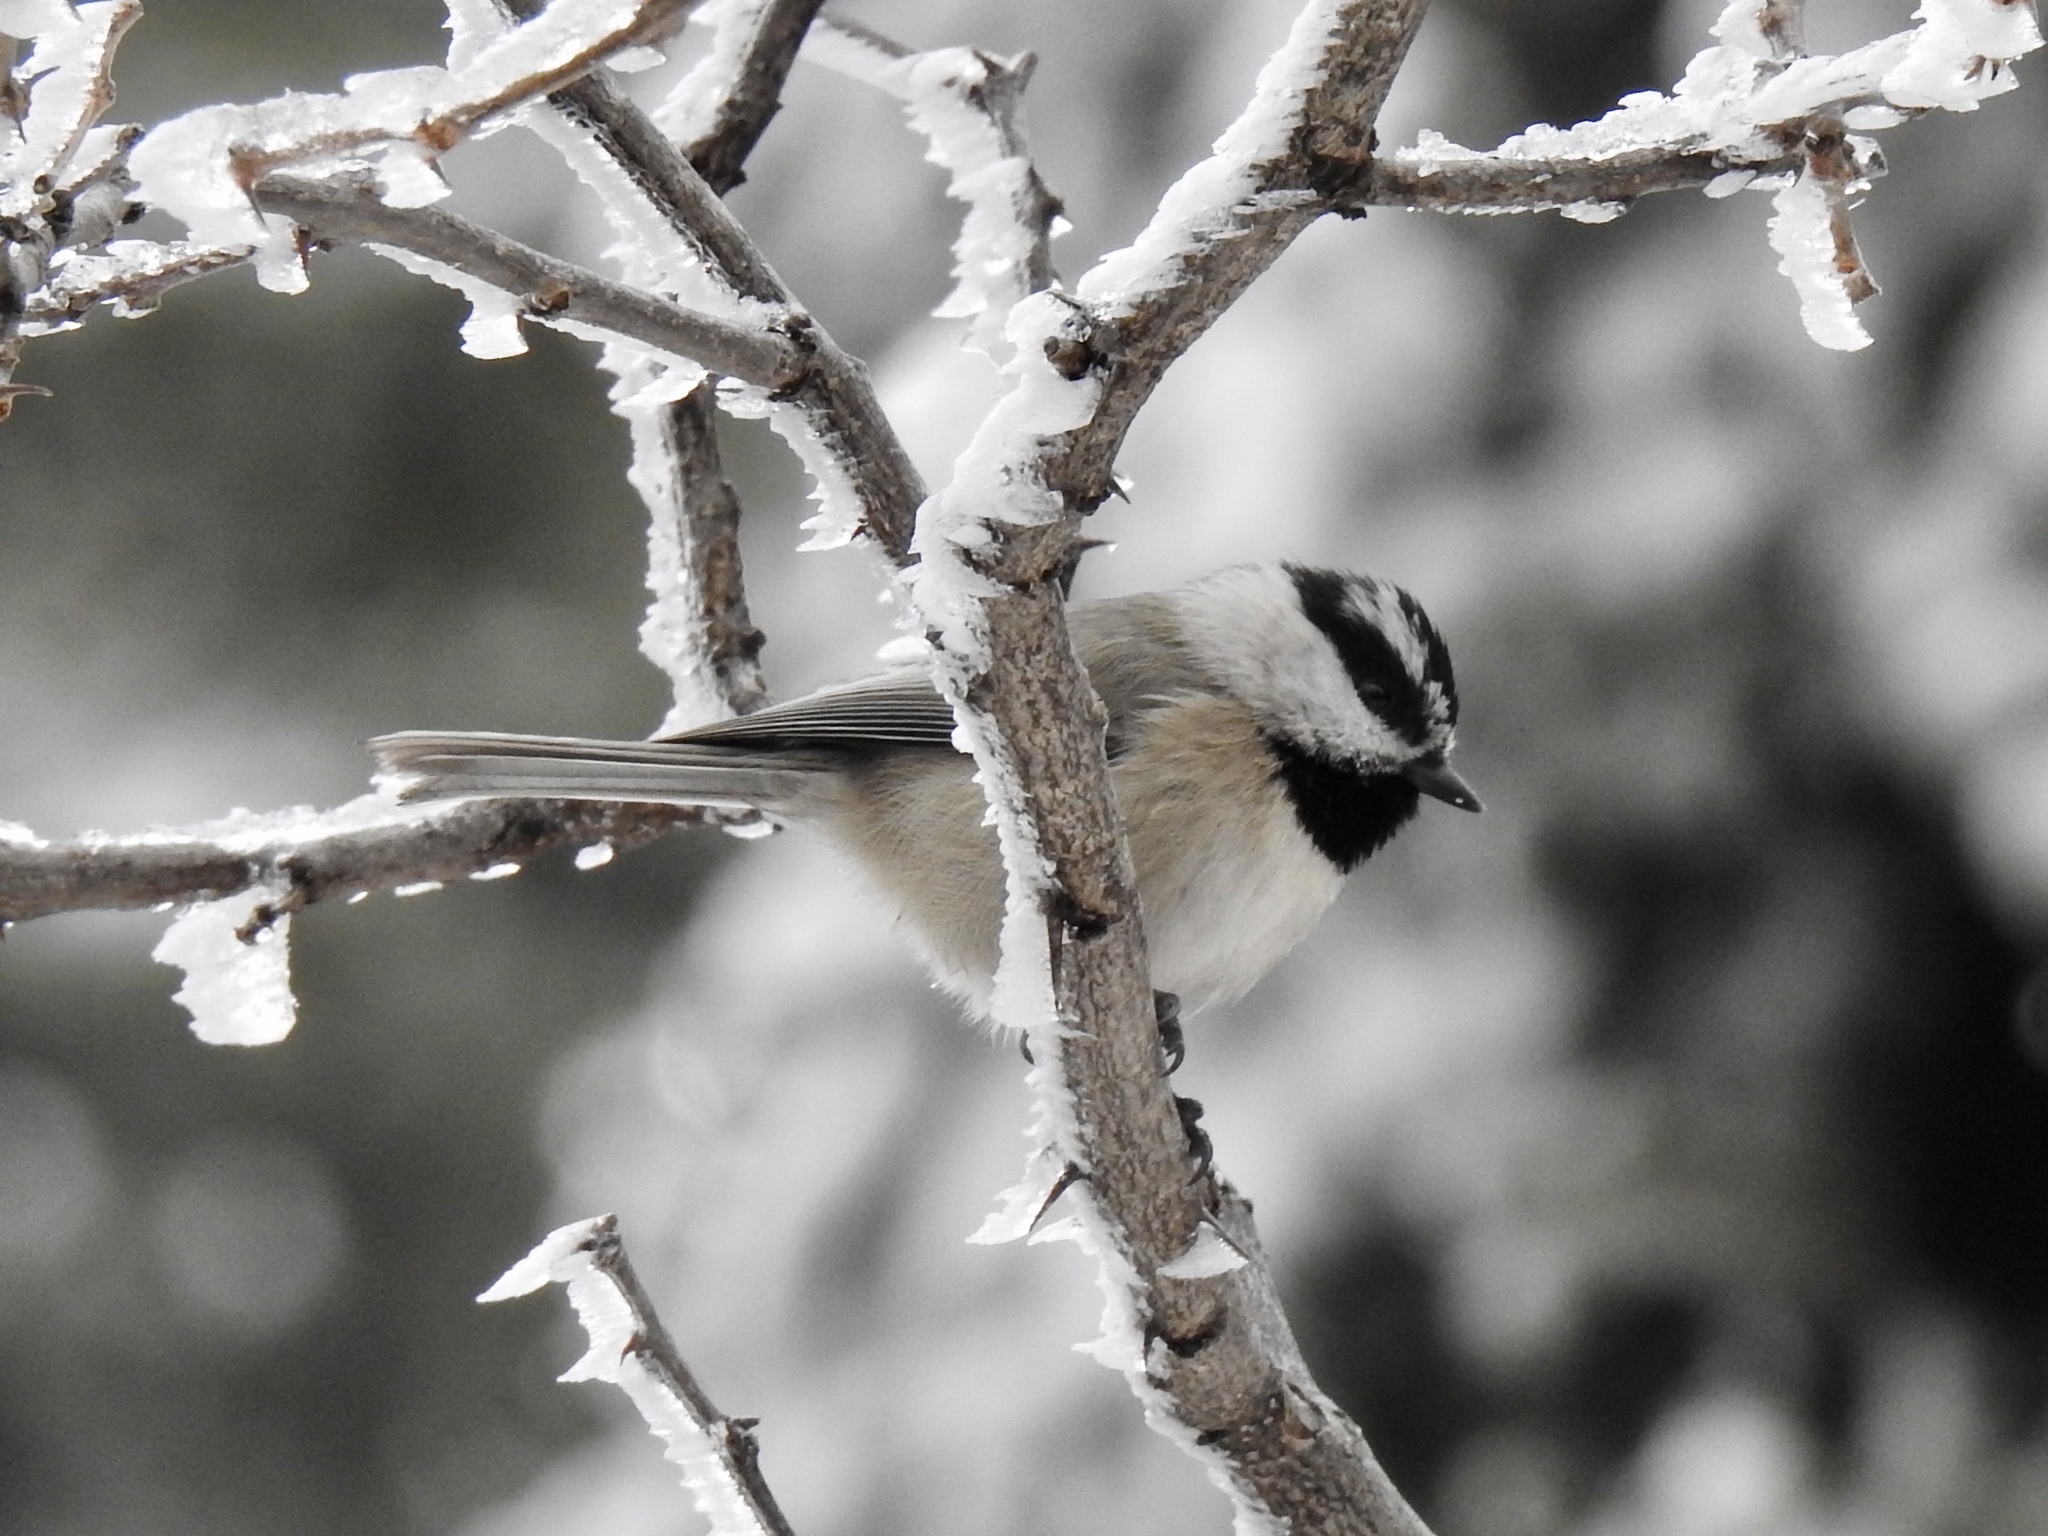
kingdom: Animalia
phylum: Chordata
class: Aves
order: Passeriformes
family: Paridae
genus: Poecile
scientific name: Poecile gambeli
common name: Mountain chickadee
